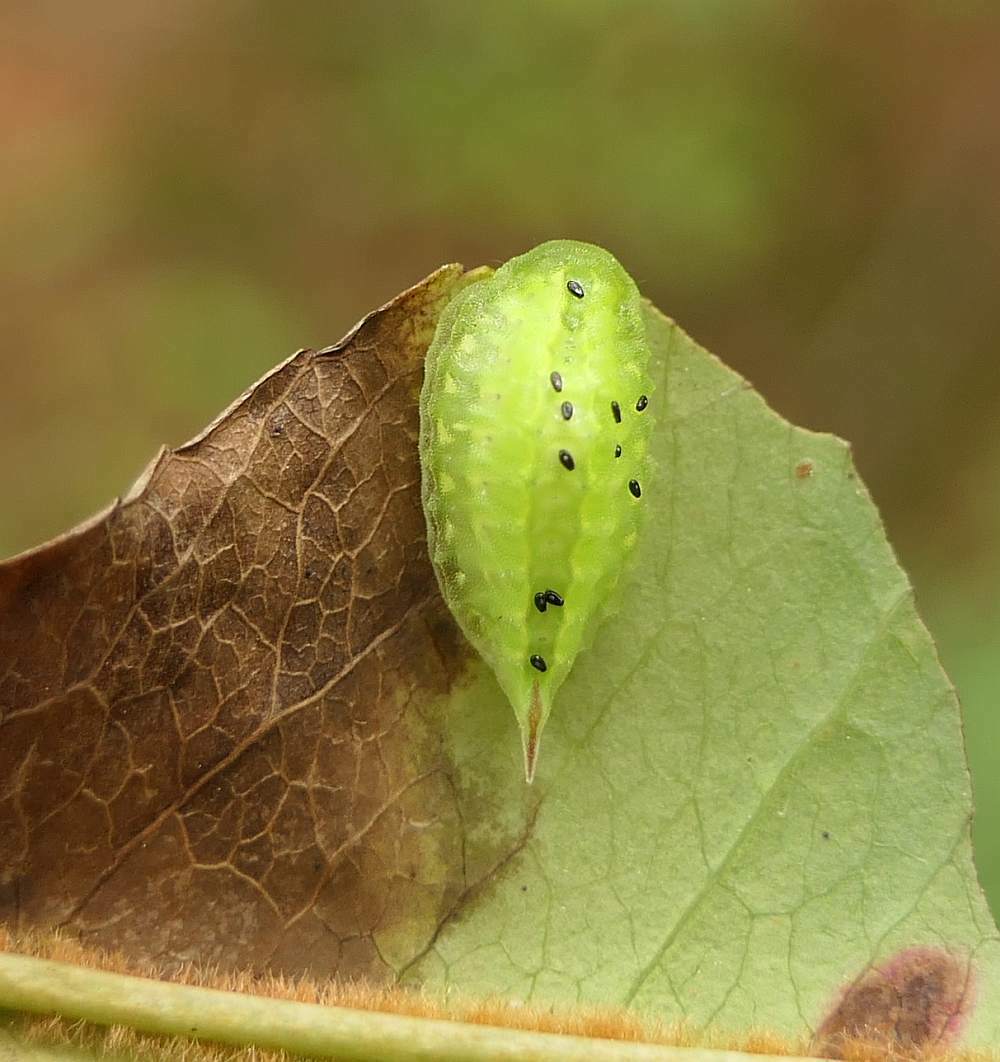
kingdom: Animalia
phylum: Arthropoda
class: Insecta
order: Lepidoptera
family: Limacodidae
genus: Packardia
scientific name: Packardia elegans
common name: Elegant tailed slug moth
